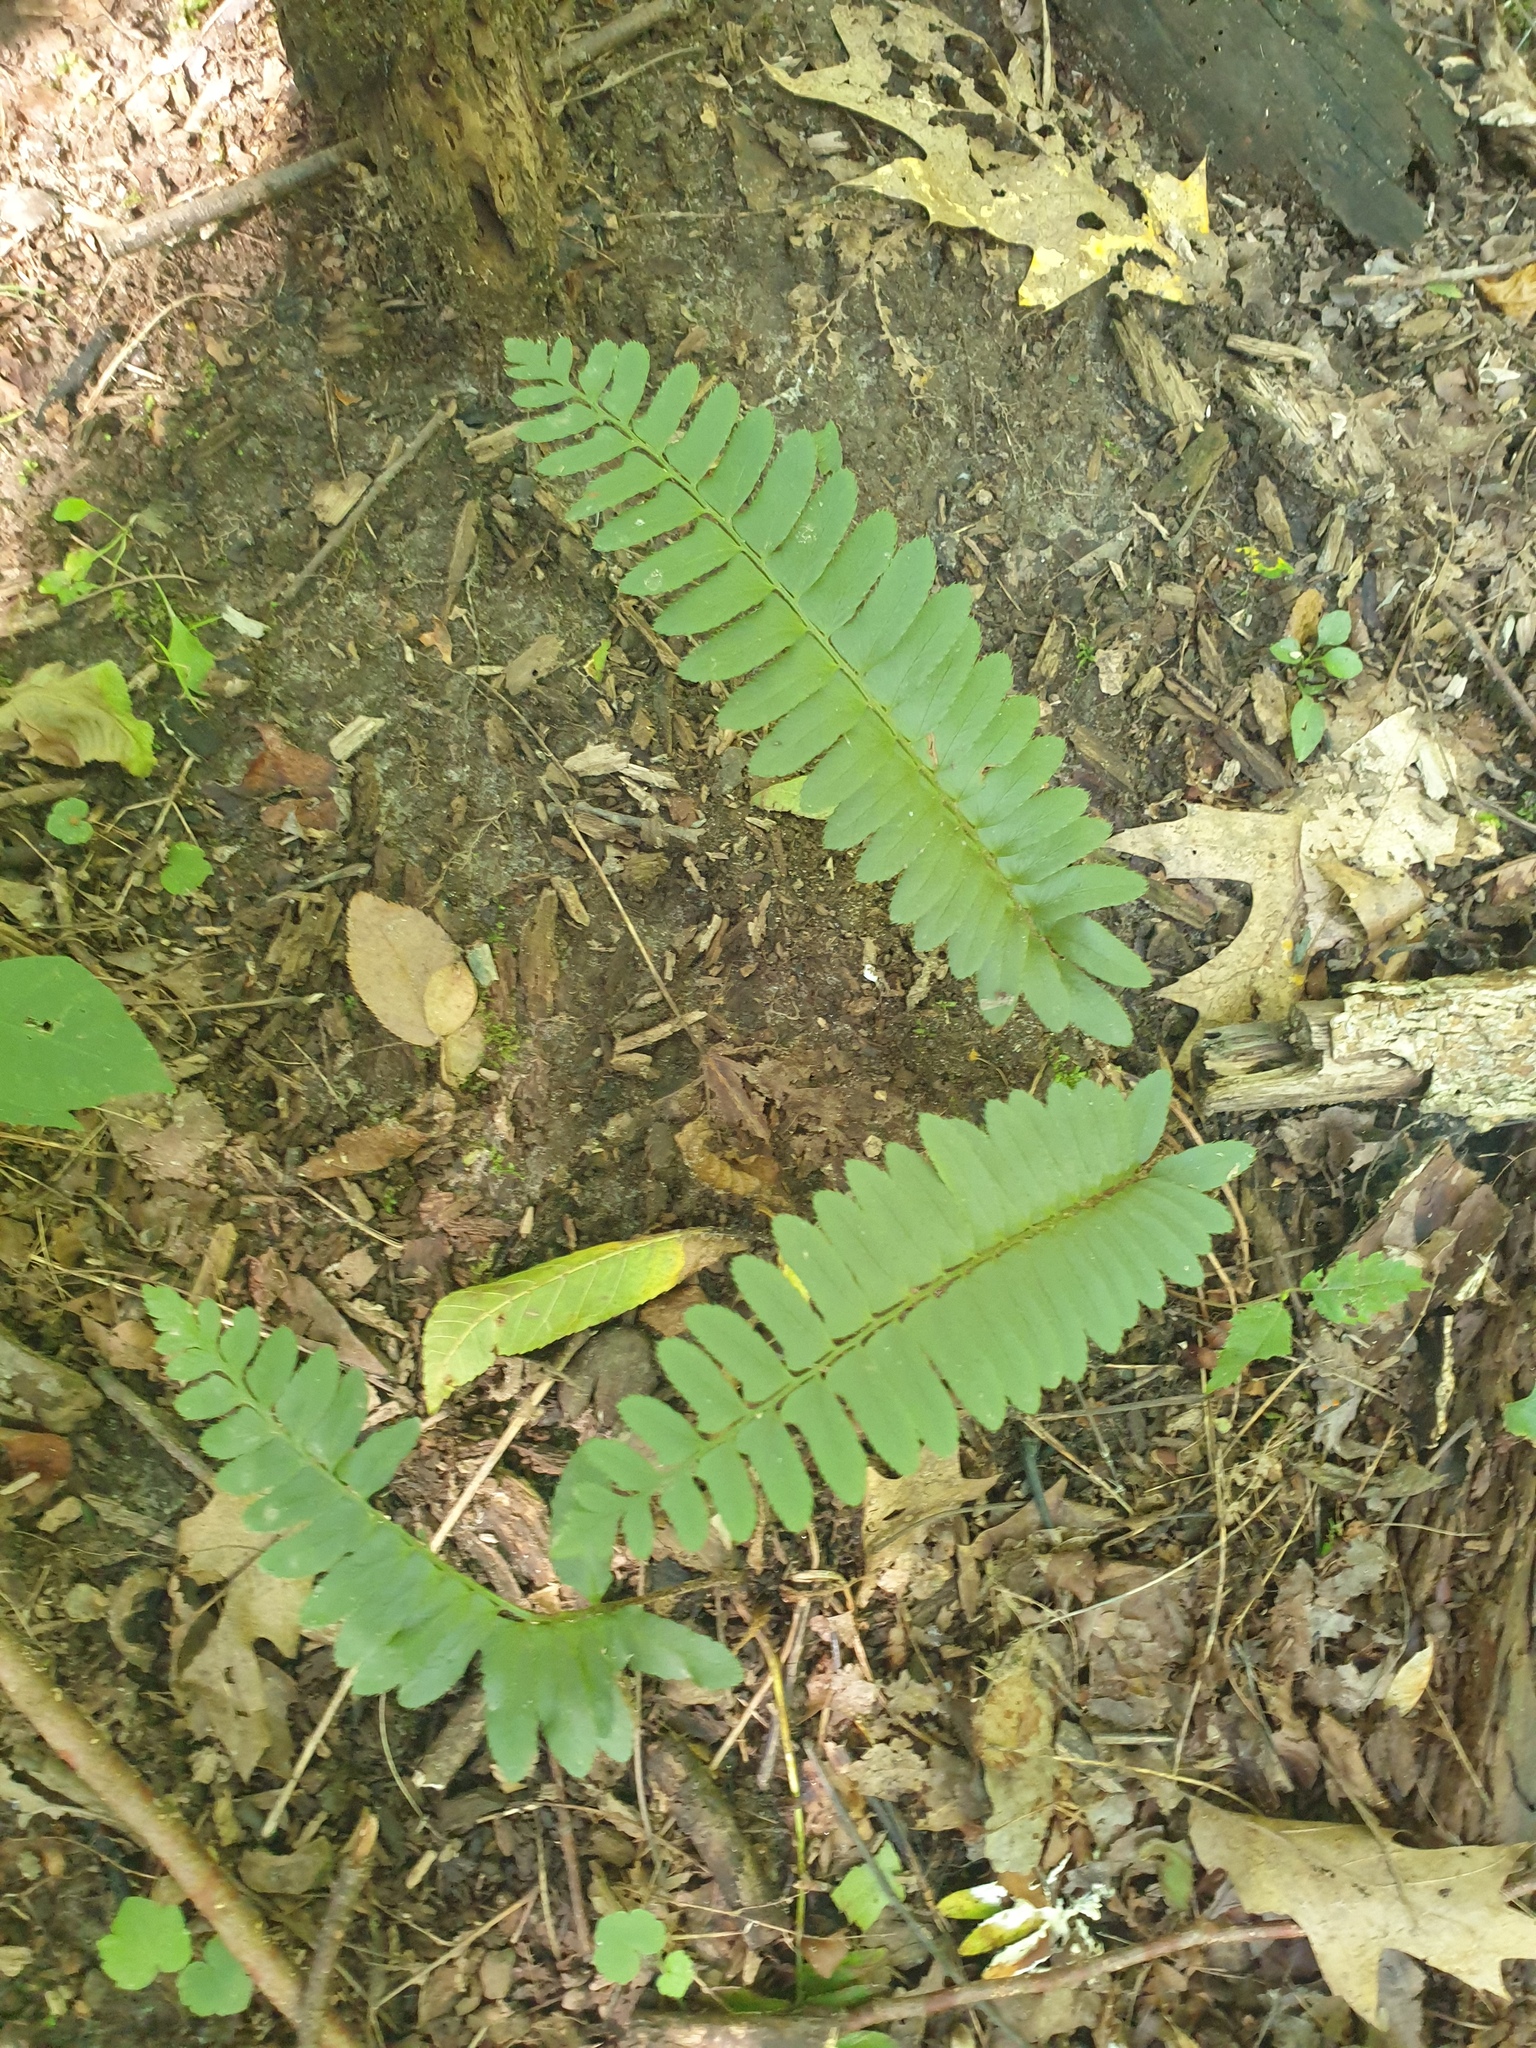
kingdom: Plantae
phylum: Tracheophyta
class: Polypodiopsida
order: Polypodiales
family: Dryopteridaceae
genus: Polystichum
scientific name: Polystichum acrostichoides
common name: Christmas fern
